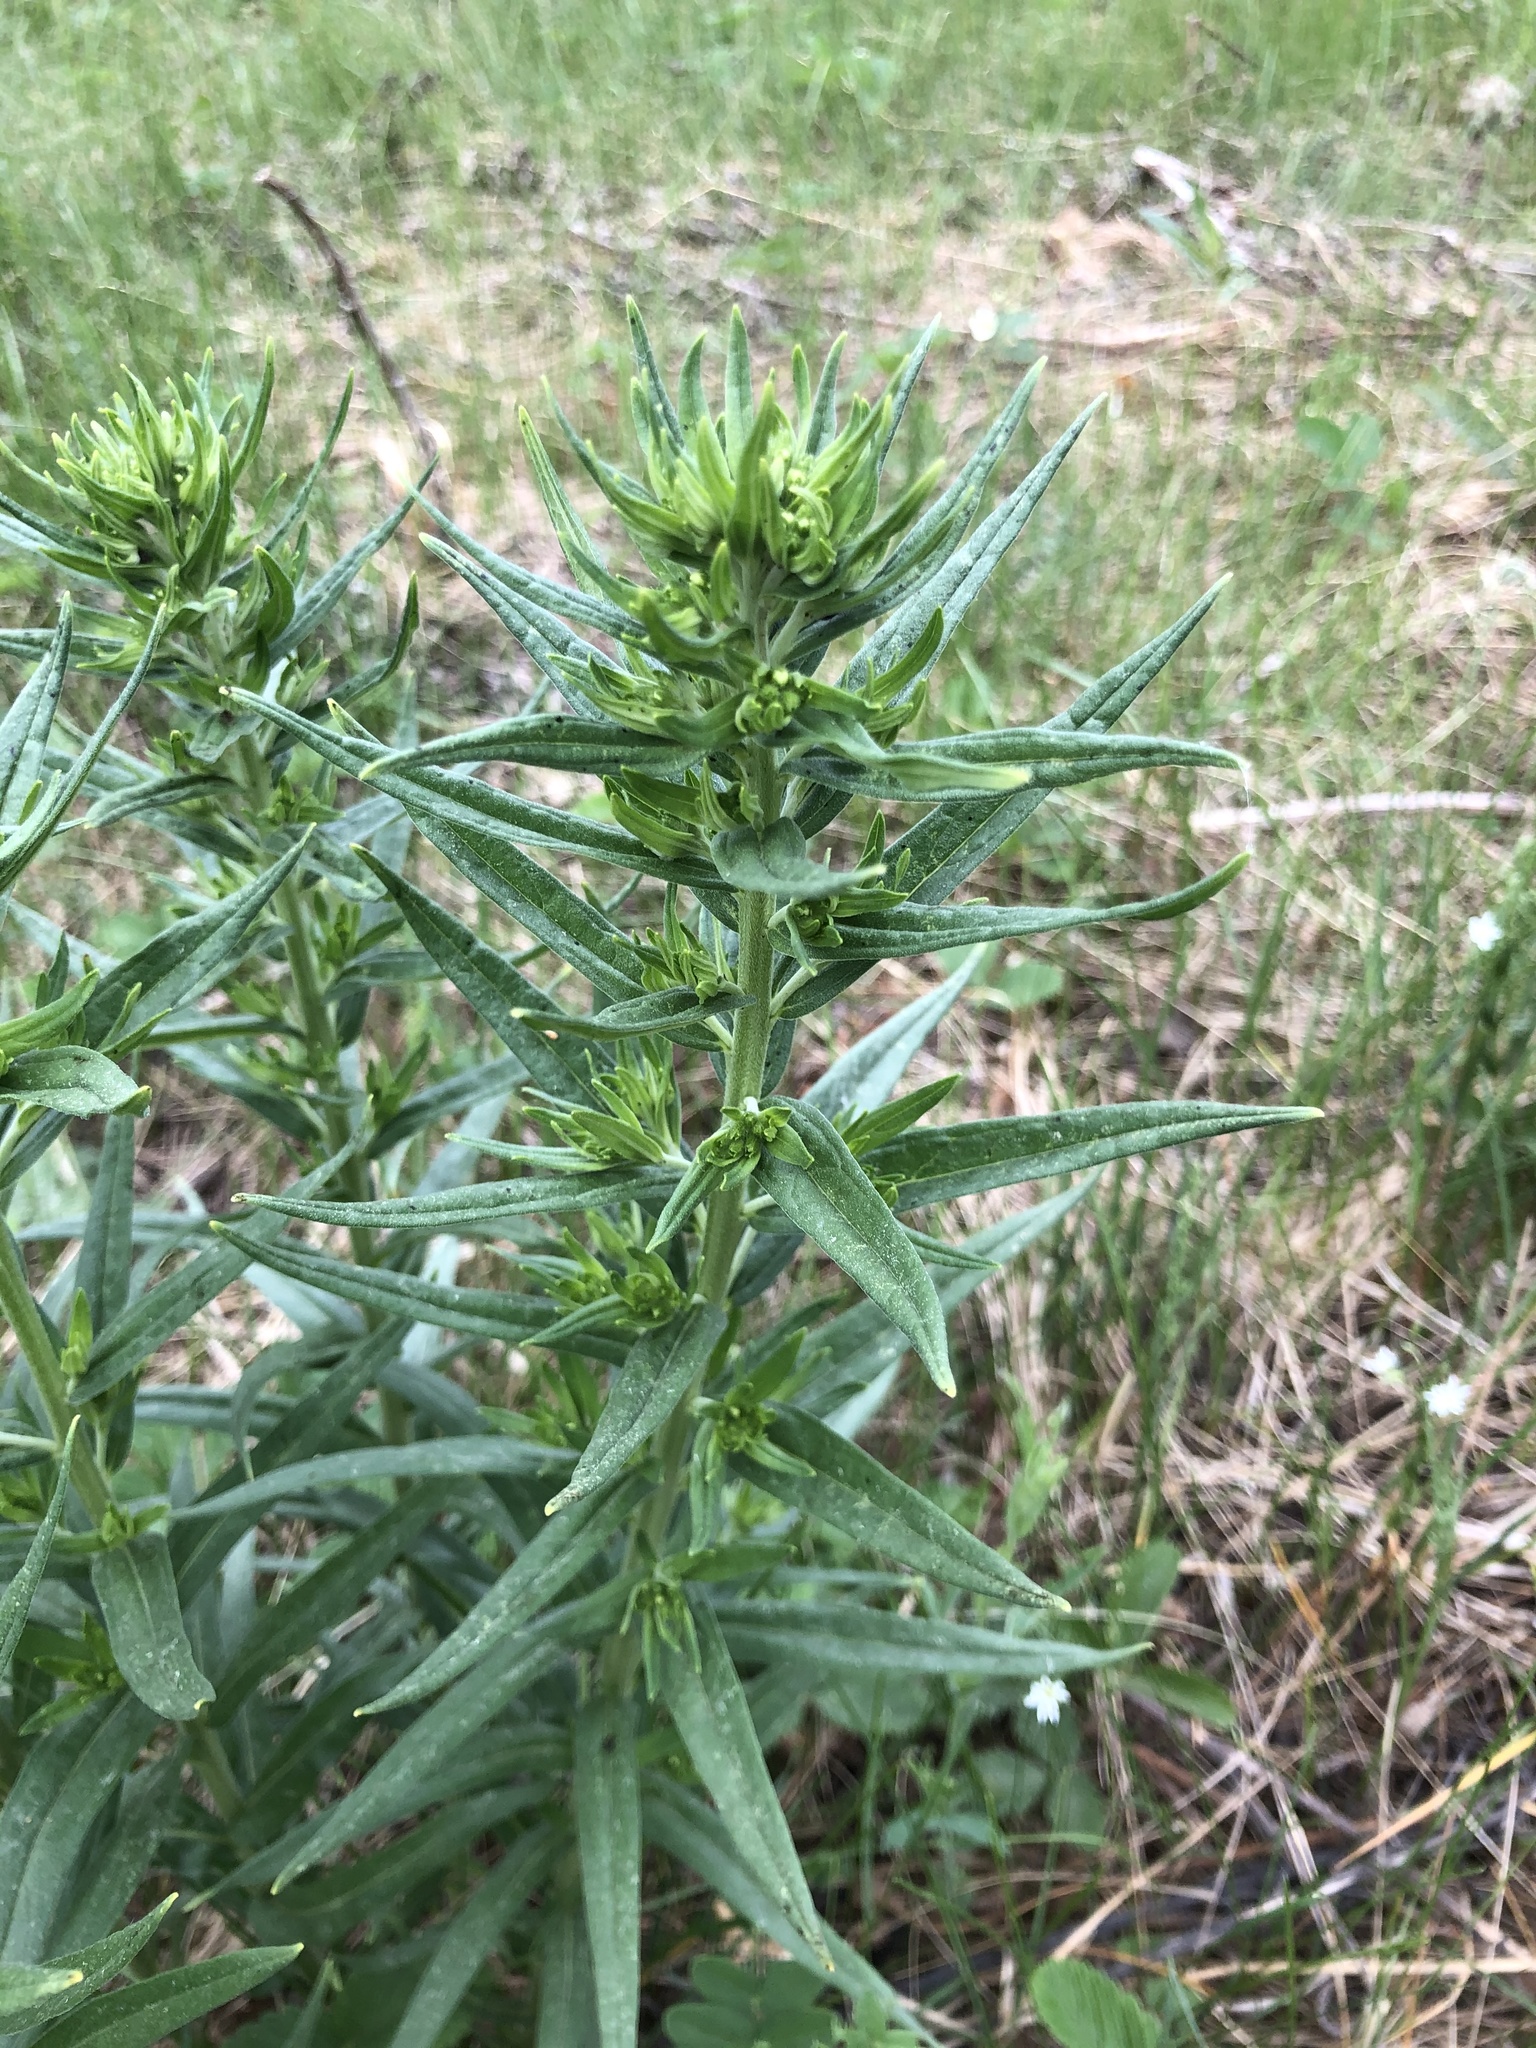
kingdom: Plantae
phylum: Tracheophyta
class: Magnoliopsida
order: Boraginales
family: Boraginaceae
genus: Lithospermum
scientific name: Lithospermum officinale
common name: Common gromwell
